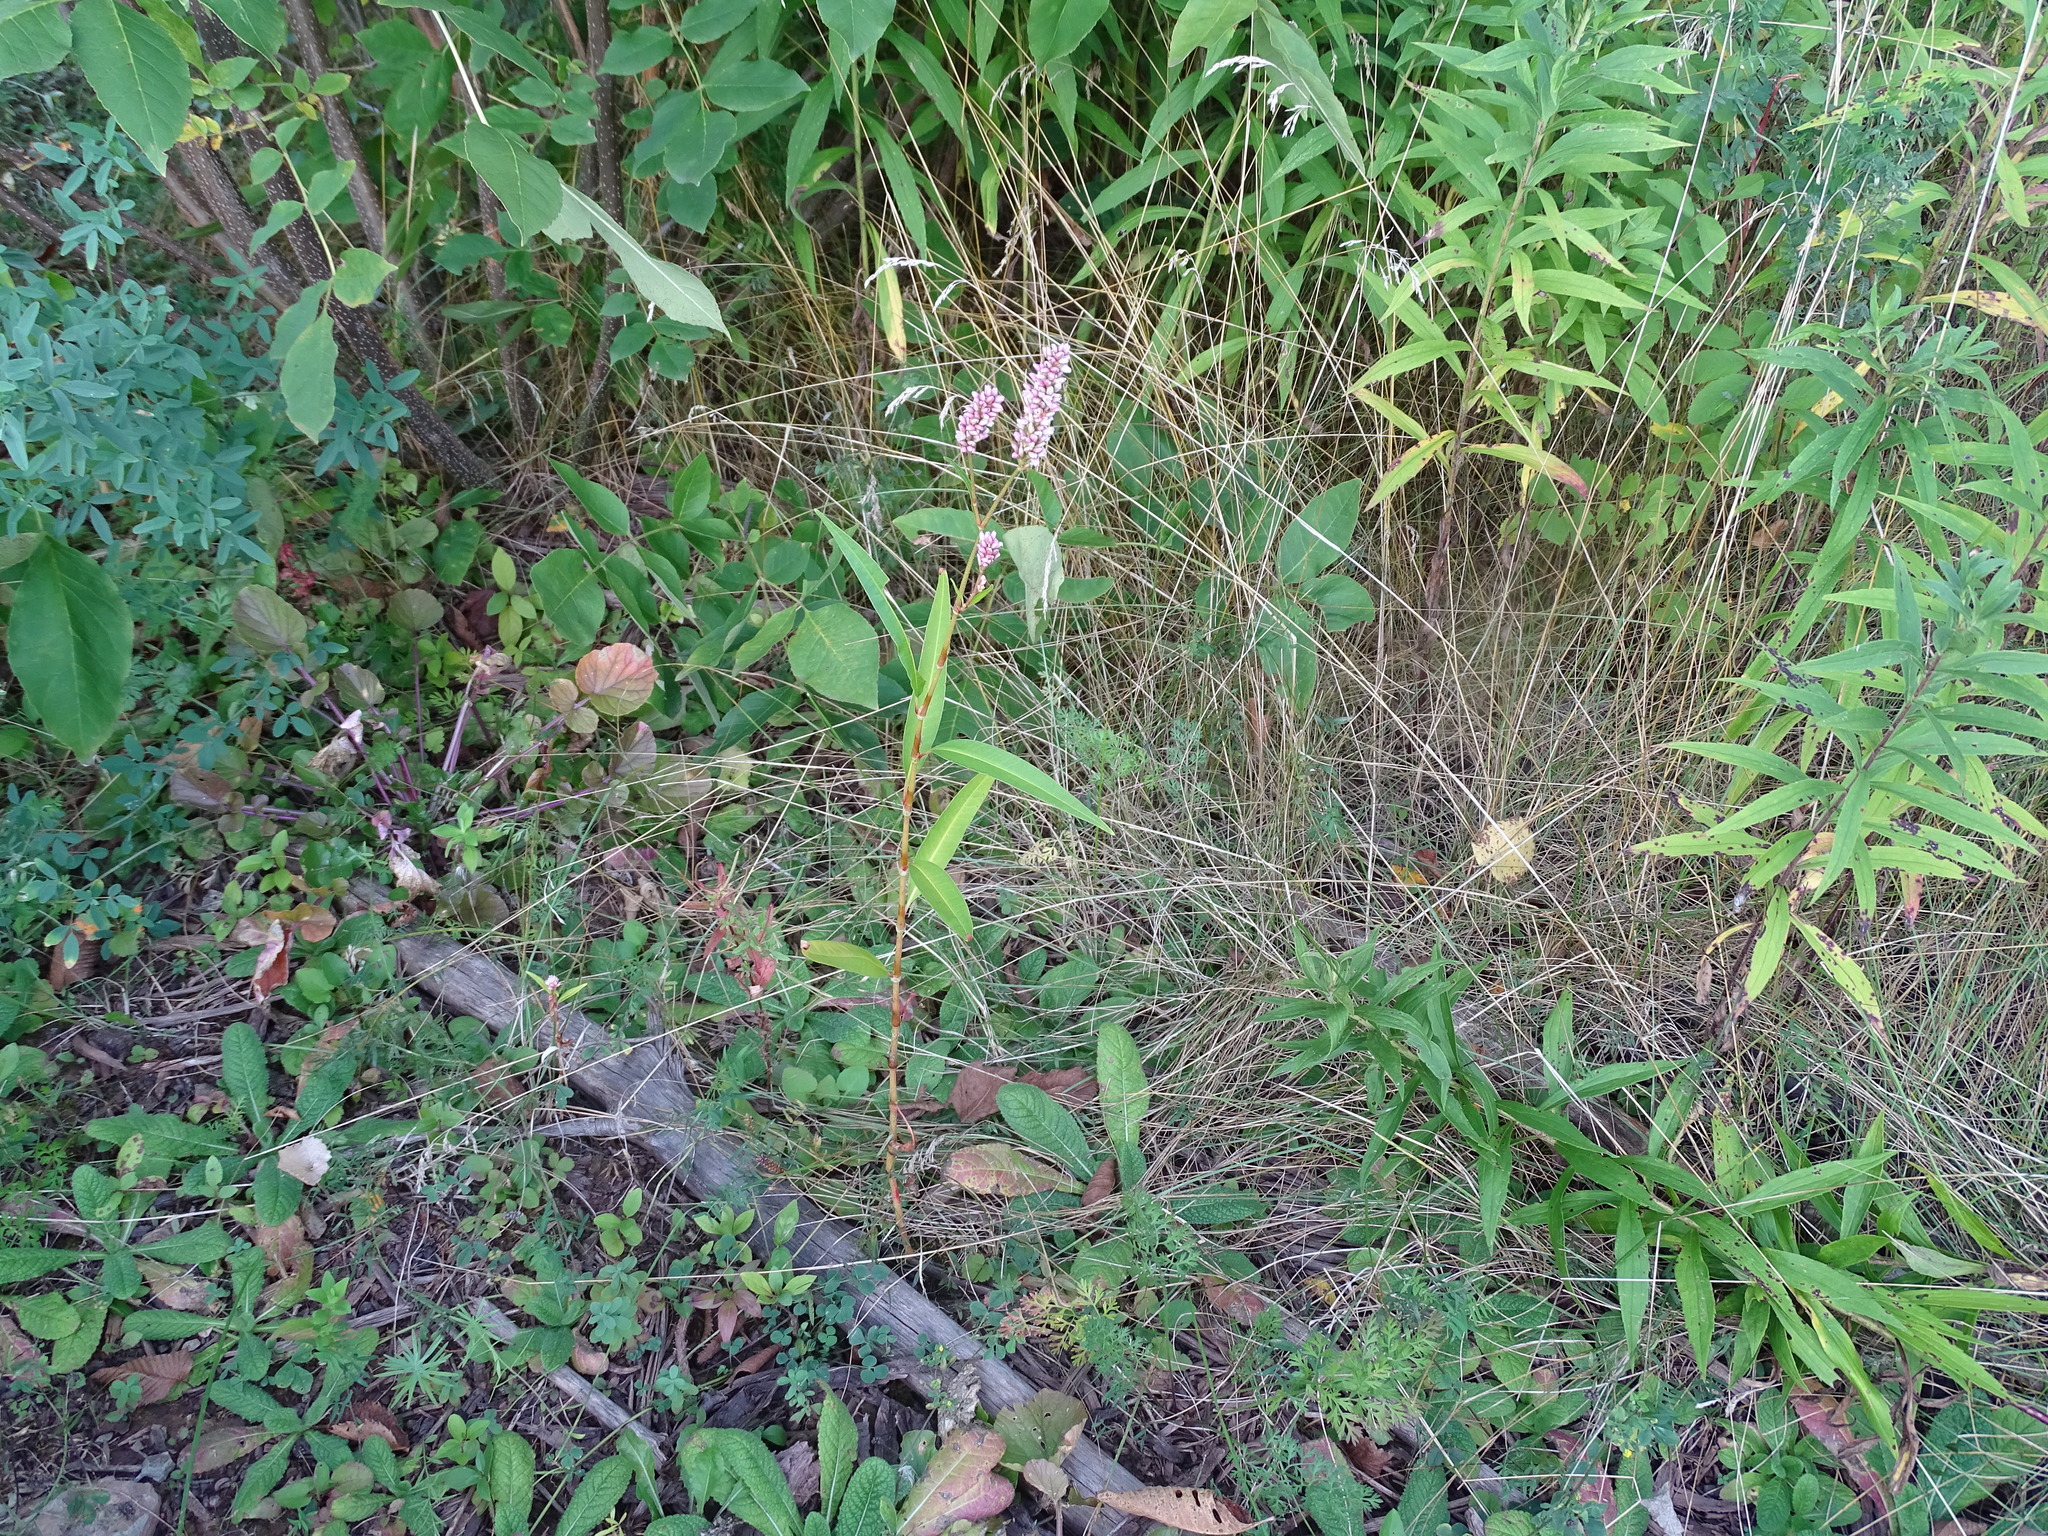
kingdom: Plantae
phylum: Tracheophyta
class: Magnoliopsida
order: Caryophyllales
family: Polygonaceae
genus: Persicaria
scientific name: Persicaria pensylvanica
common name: Pinkweed
